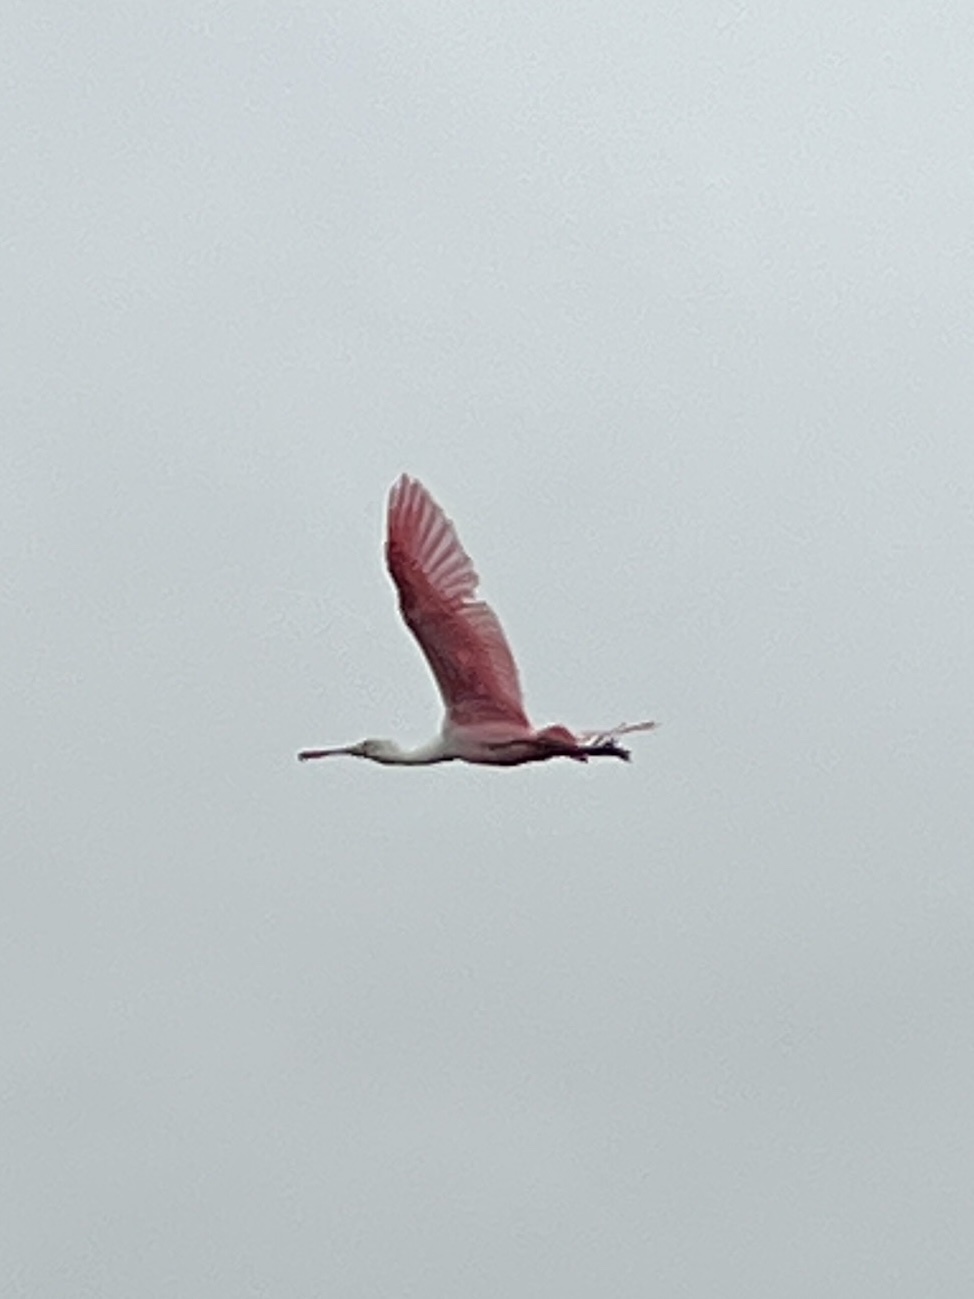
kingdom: Animalia
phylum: Chordata
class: Aves
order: Pelecaniformes
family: Threskiornithidae
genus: Platalea
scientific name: Platalea ajaja
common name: Roseate spoonbill
